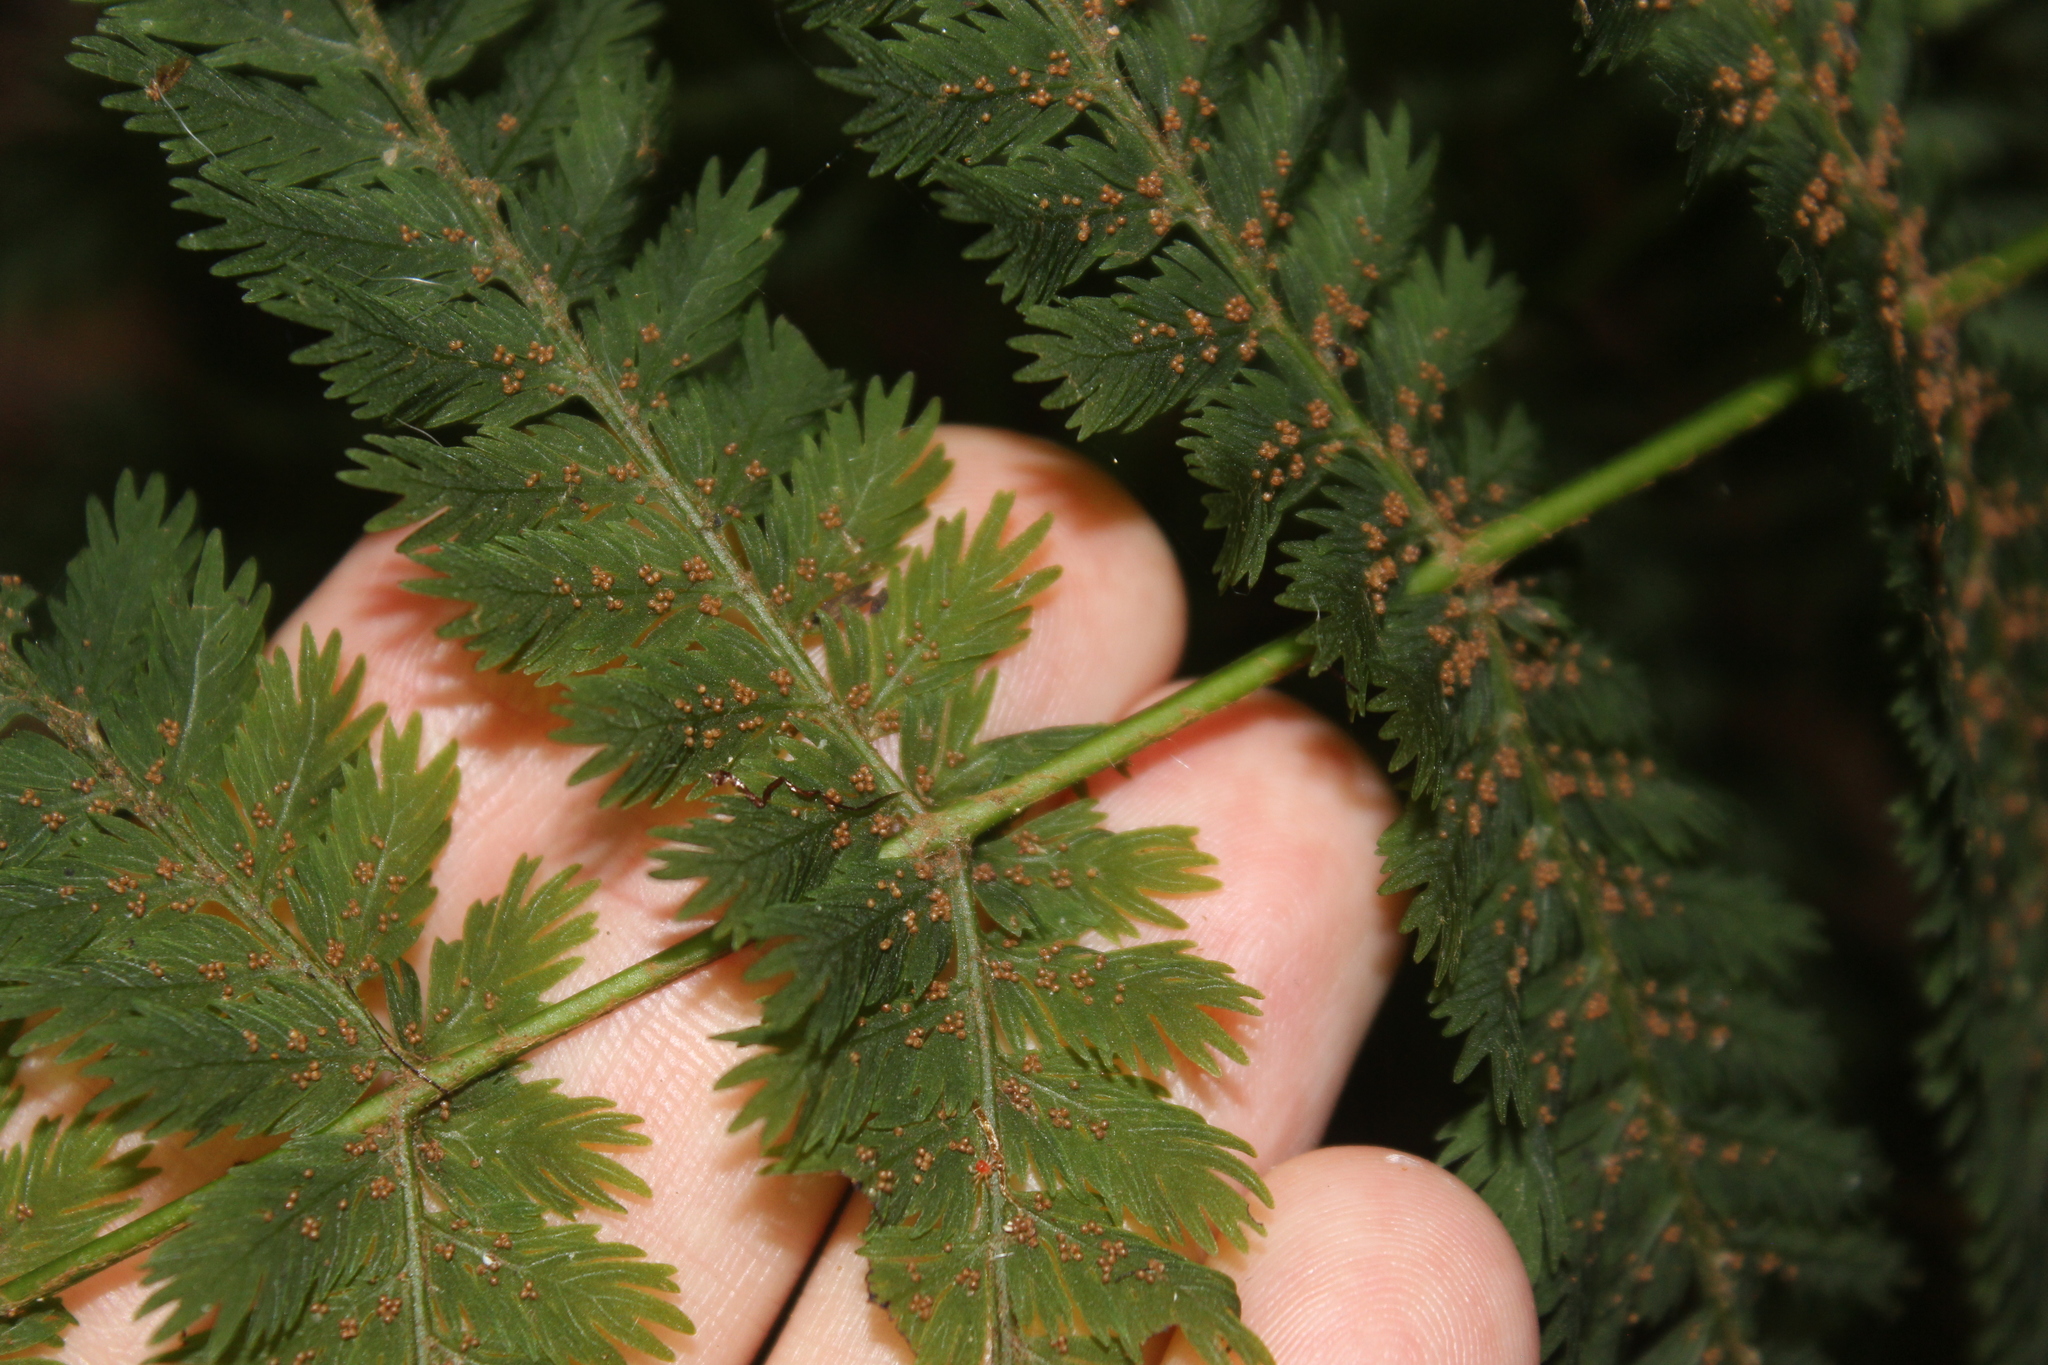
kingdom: Plantae
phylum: Tracheophyta
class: Polypodiopsida
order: Osmundales
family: Osmundaceae
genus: Leptopteris
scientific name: Leptopteris hymenophylloides
